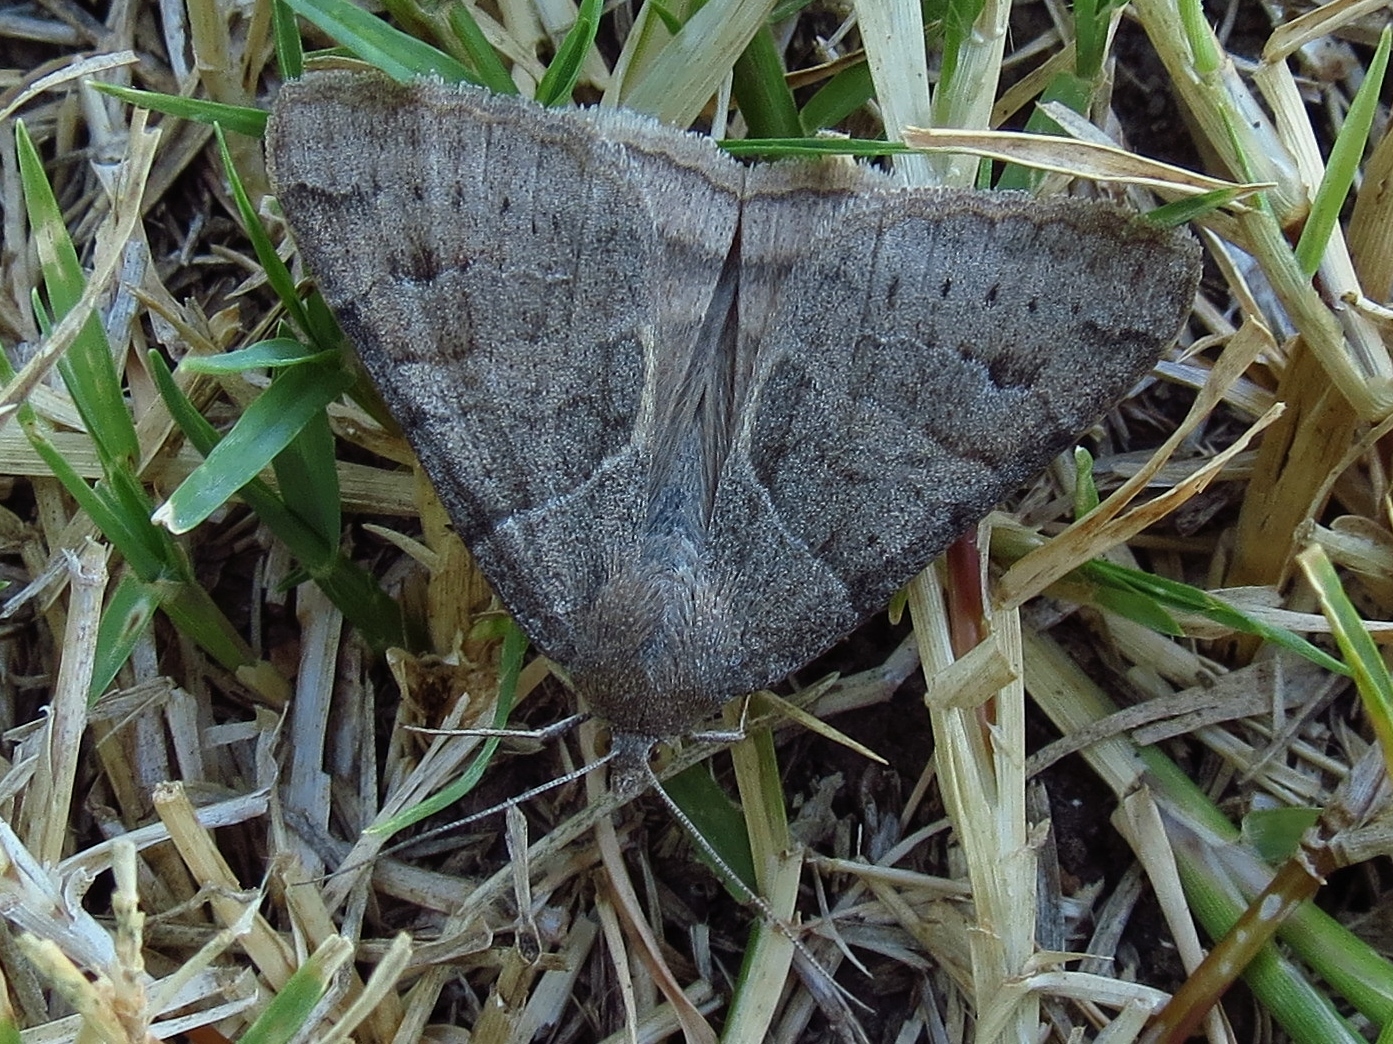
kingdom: Animalia
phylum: Arthropoda
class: Insecta
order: Lepidoptera
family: Erebidae
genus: Caenurgina
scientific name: Caenurgina erechtea
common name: Forage looper moth
